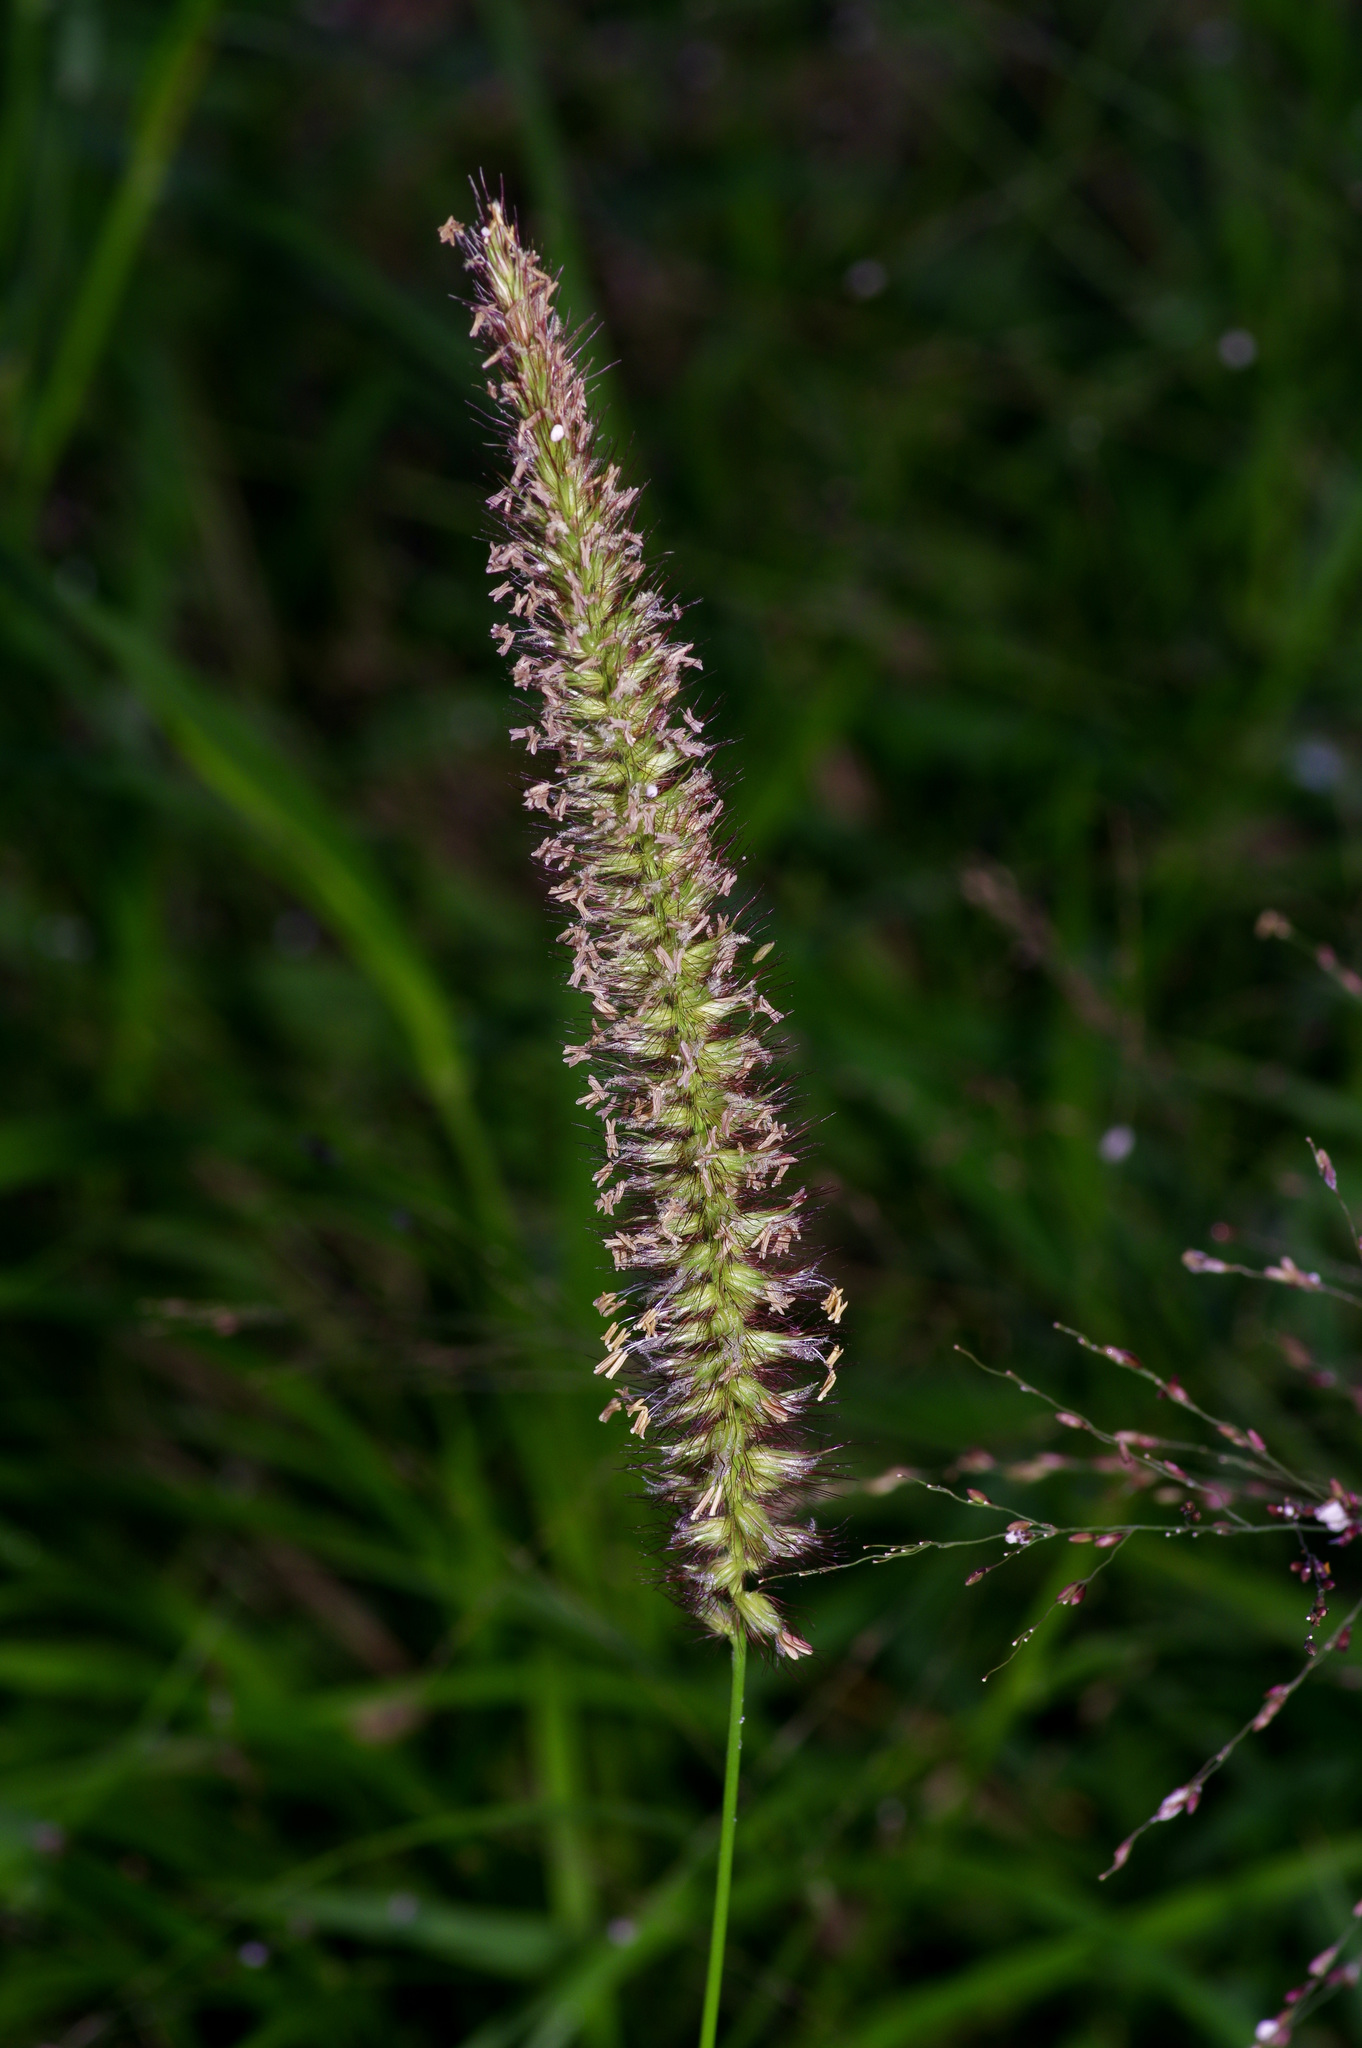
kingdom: Plantae
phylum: Tracheophyta
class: Liliopsida
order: Poales
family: Poaceae
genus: Cenchrus
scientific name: Cenchrus ciliaris
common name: Buffelgrass
